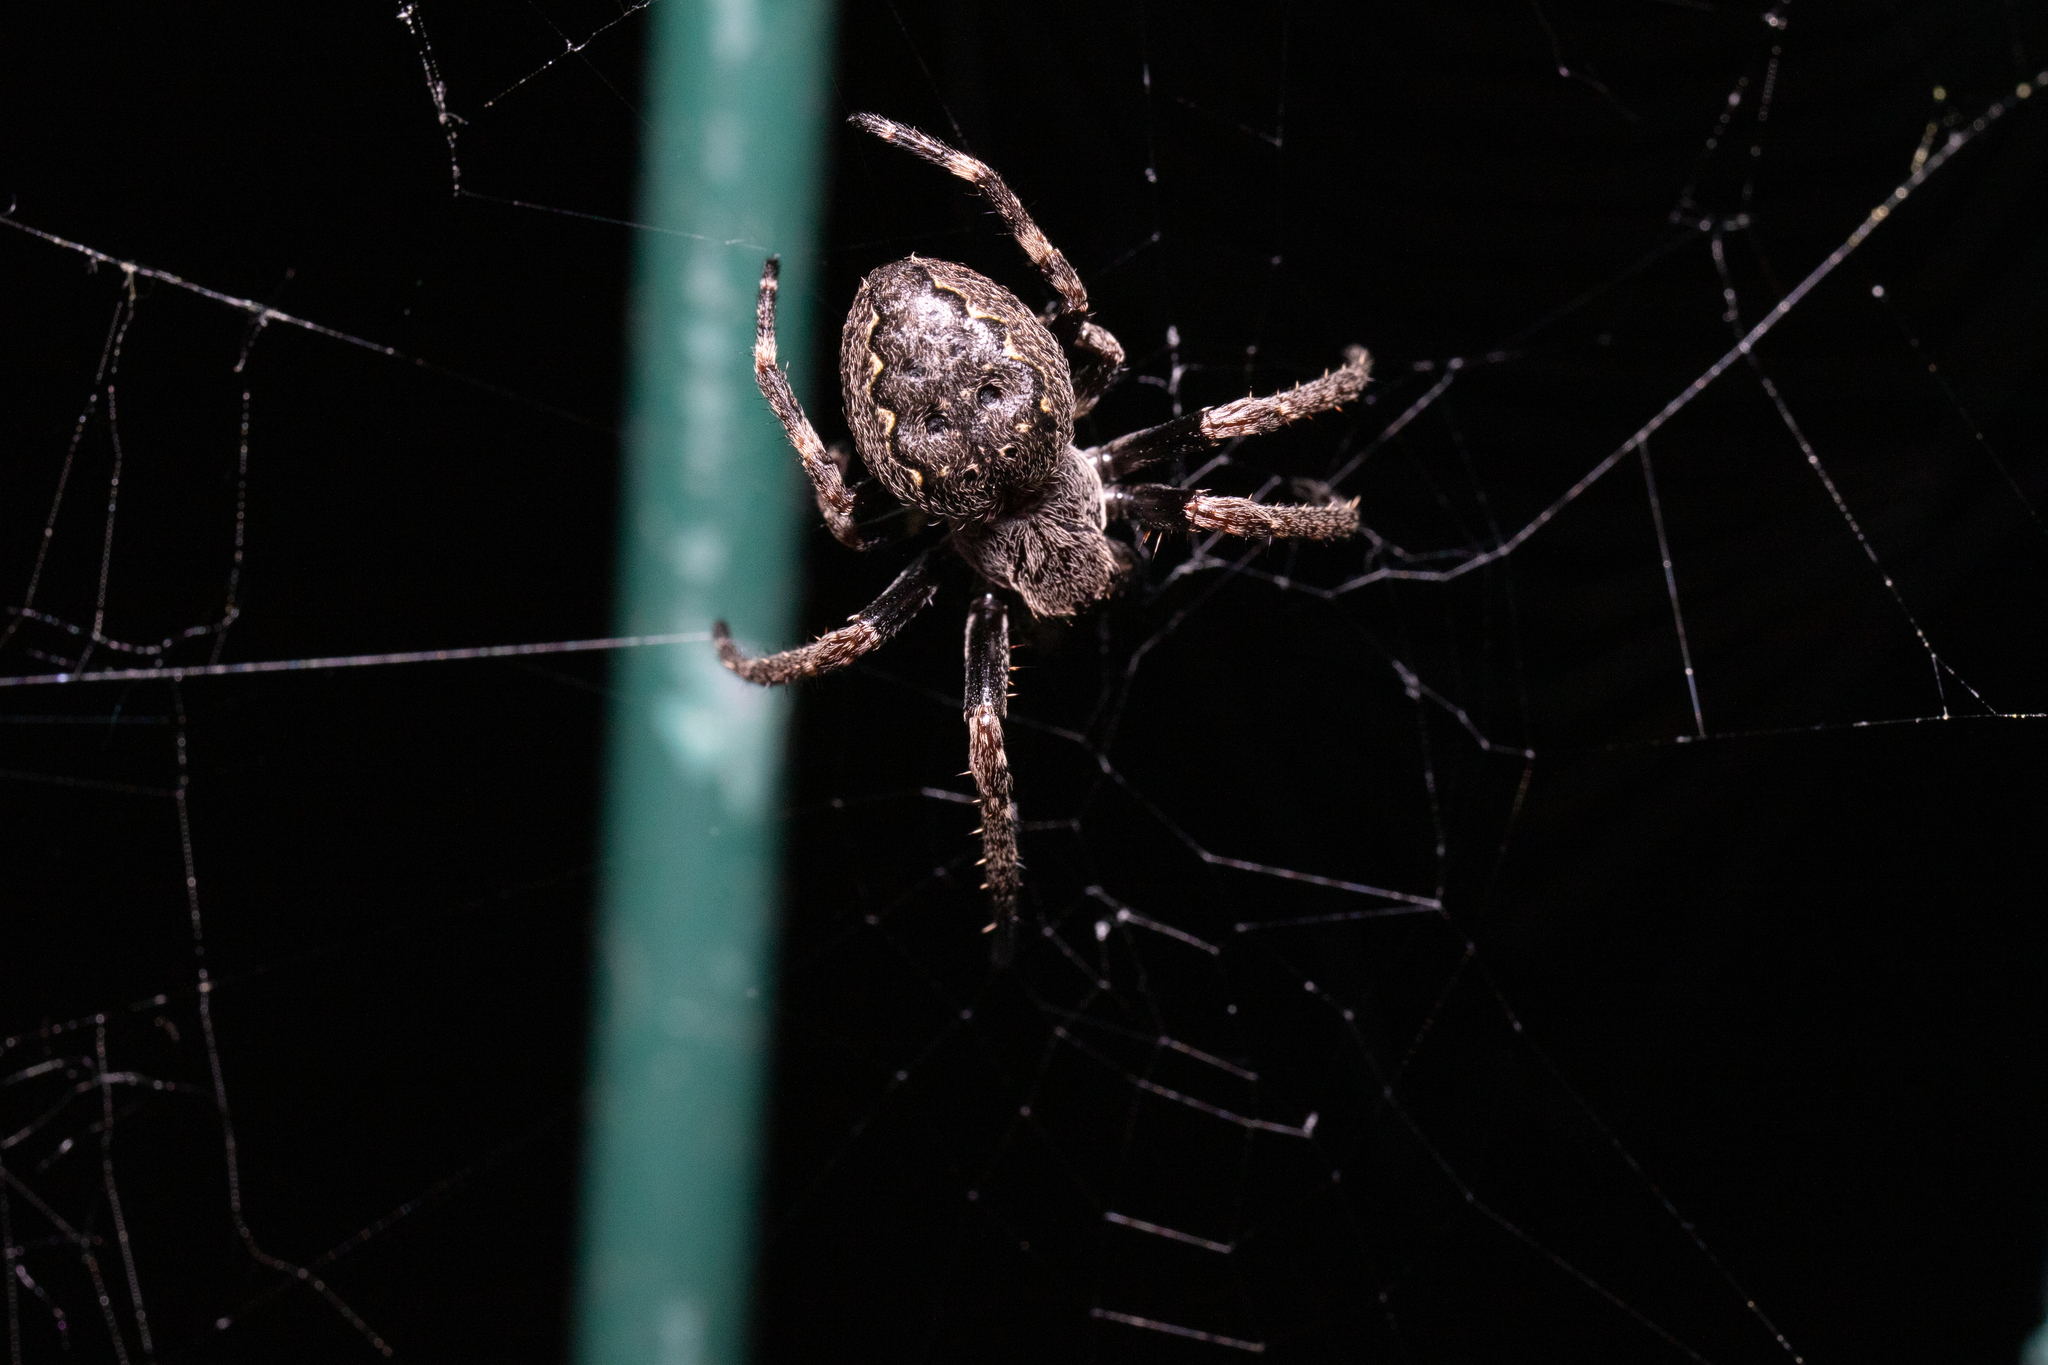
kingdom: Animalia
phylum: Arthropoda
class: Arachnida
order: Araneae
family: Araneidae
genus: Nuctenea
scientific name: Nuctenea umbratica
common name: Toad spider
